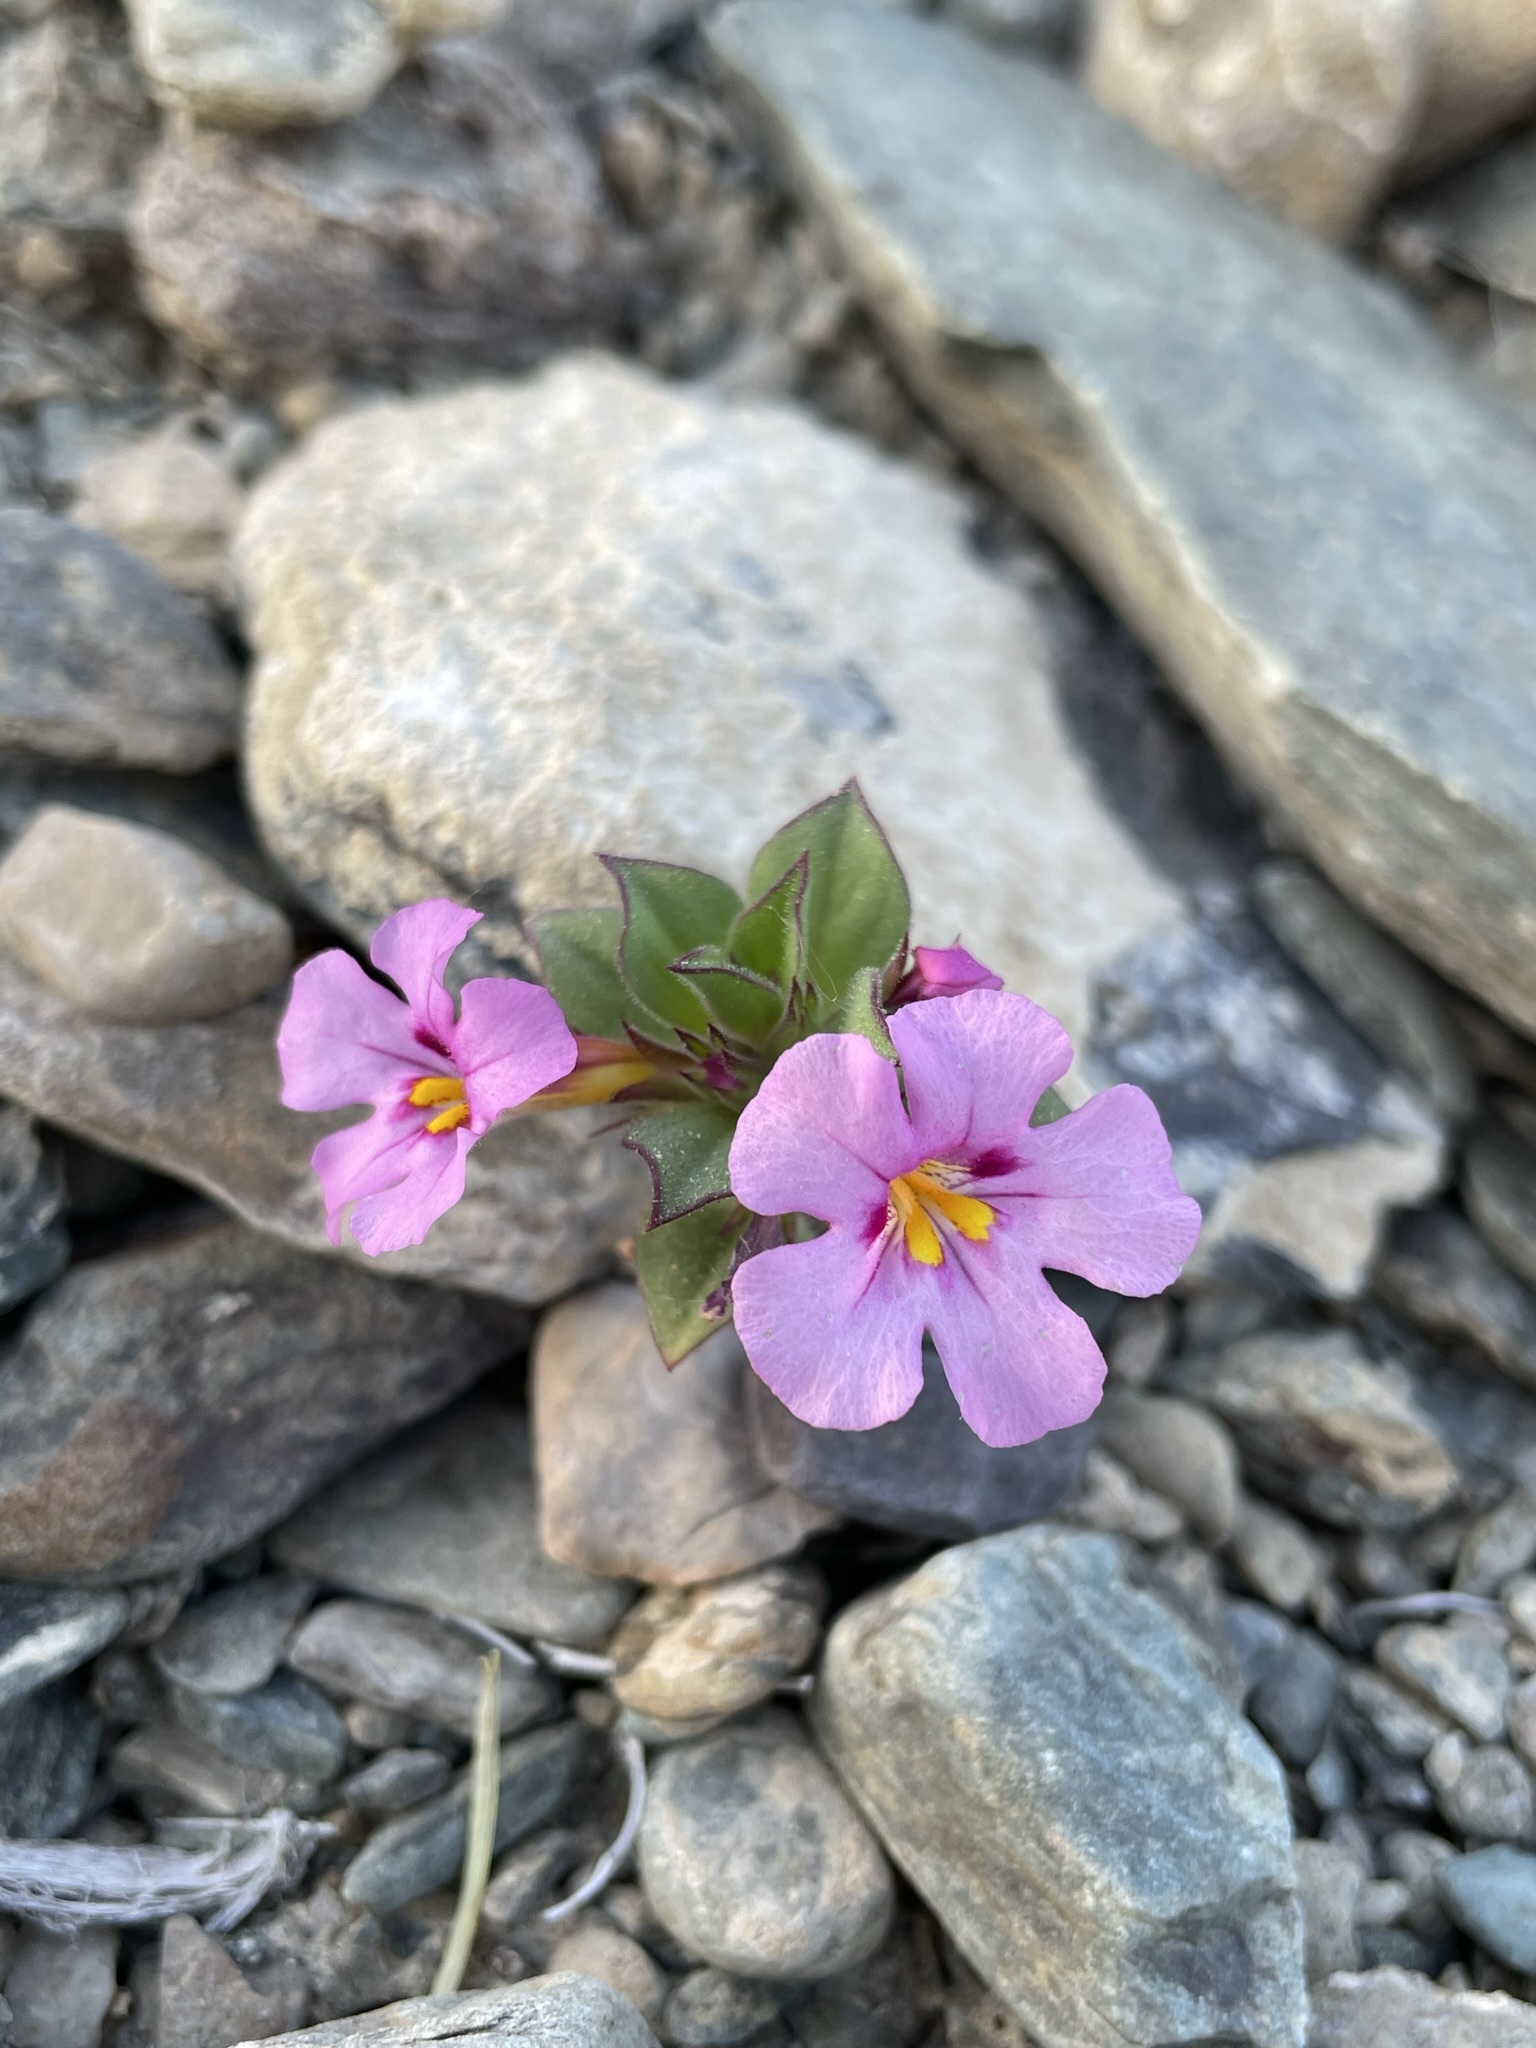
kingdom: Plantae
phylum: Tracheophyta
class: Magnoliopsida
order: Lamiales
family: Phrymaceae
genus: Diplacus
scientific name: Diplacus bigelovii
